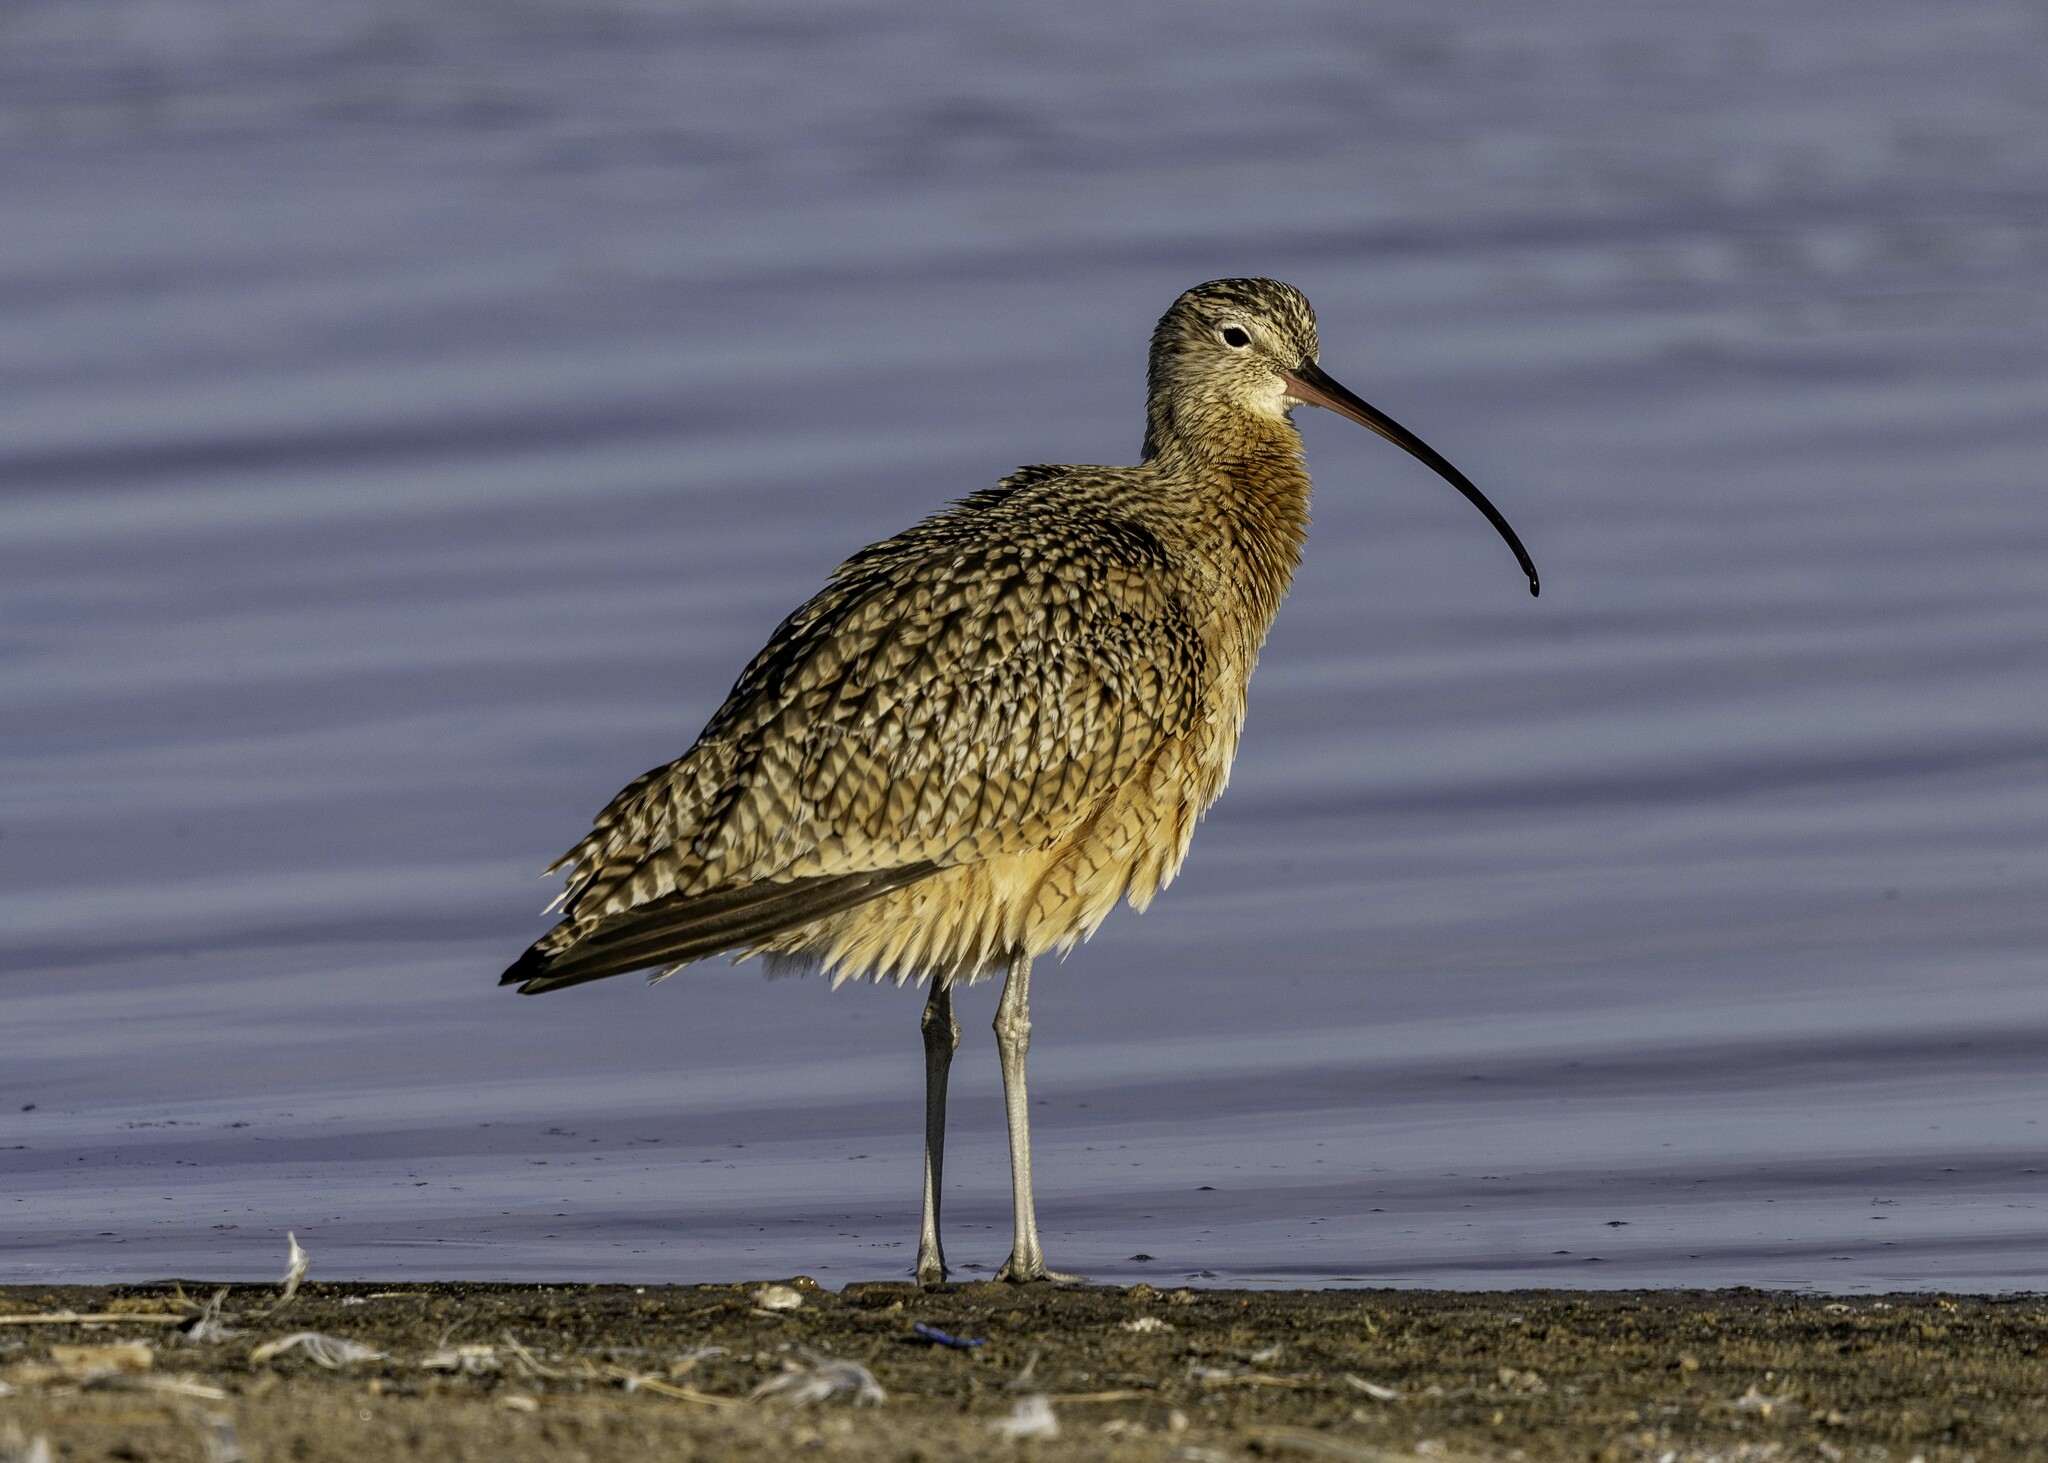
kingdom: Animalia
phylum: Chordata
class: Aves
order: Charadriiformes
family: Scolopacidae
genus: Numenius
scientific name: Numenius americanus
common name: Long-billed curlew
